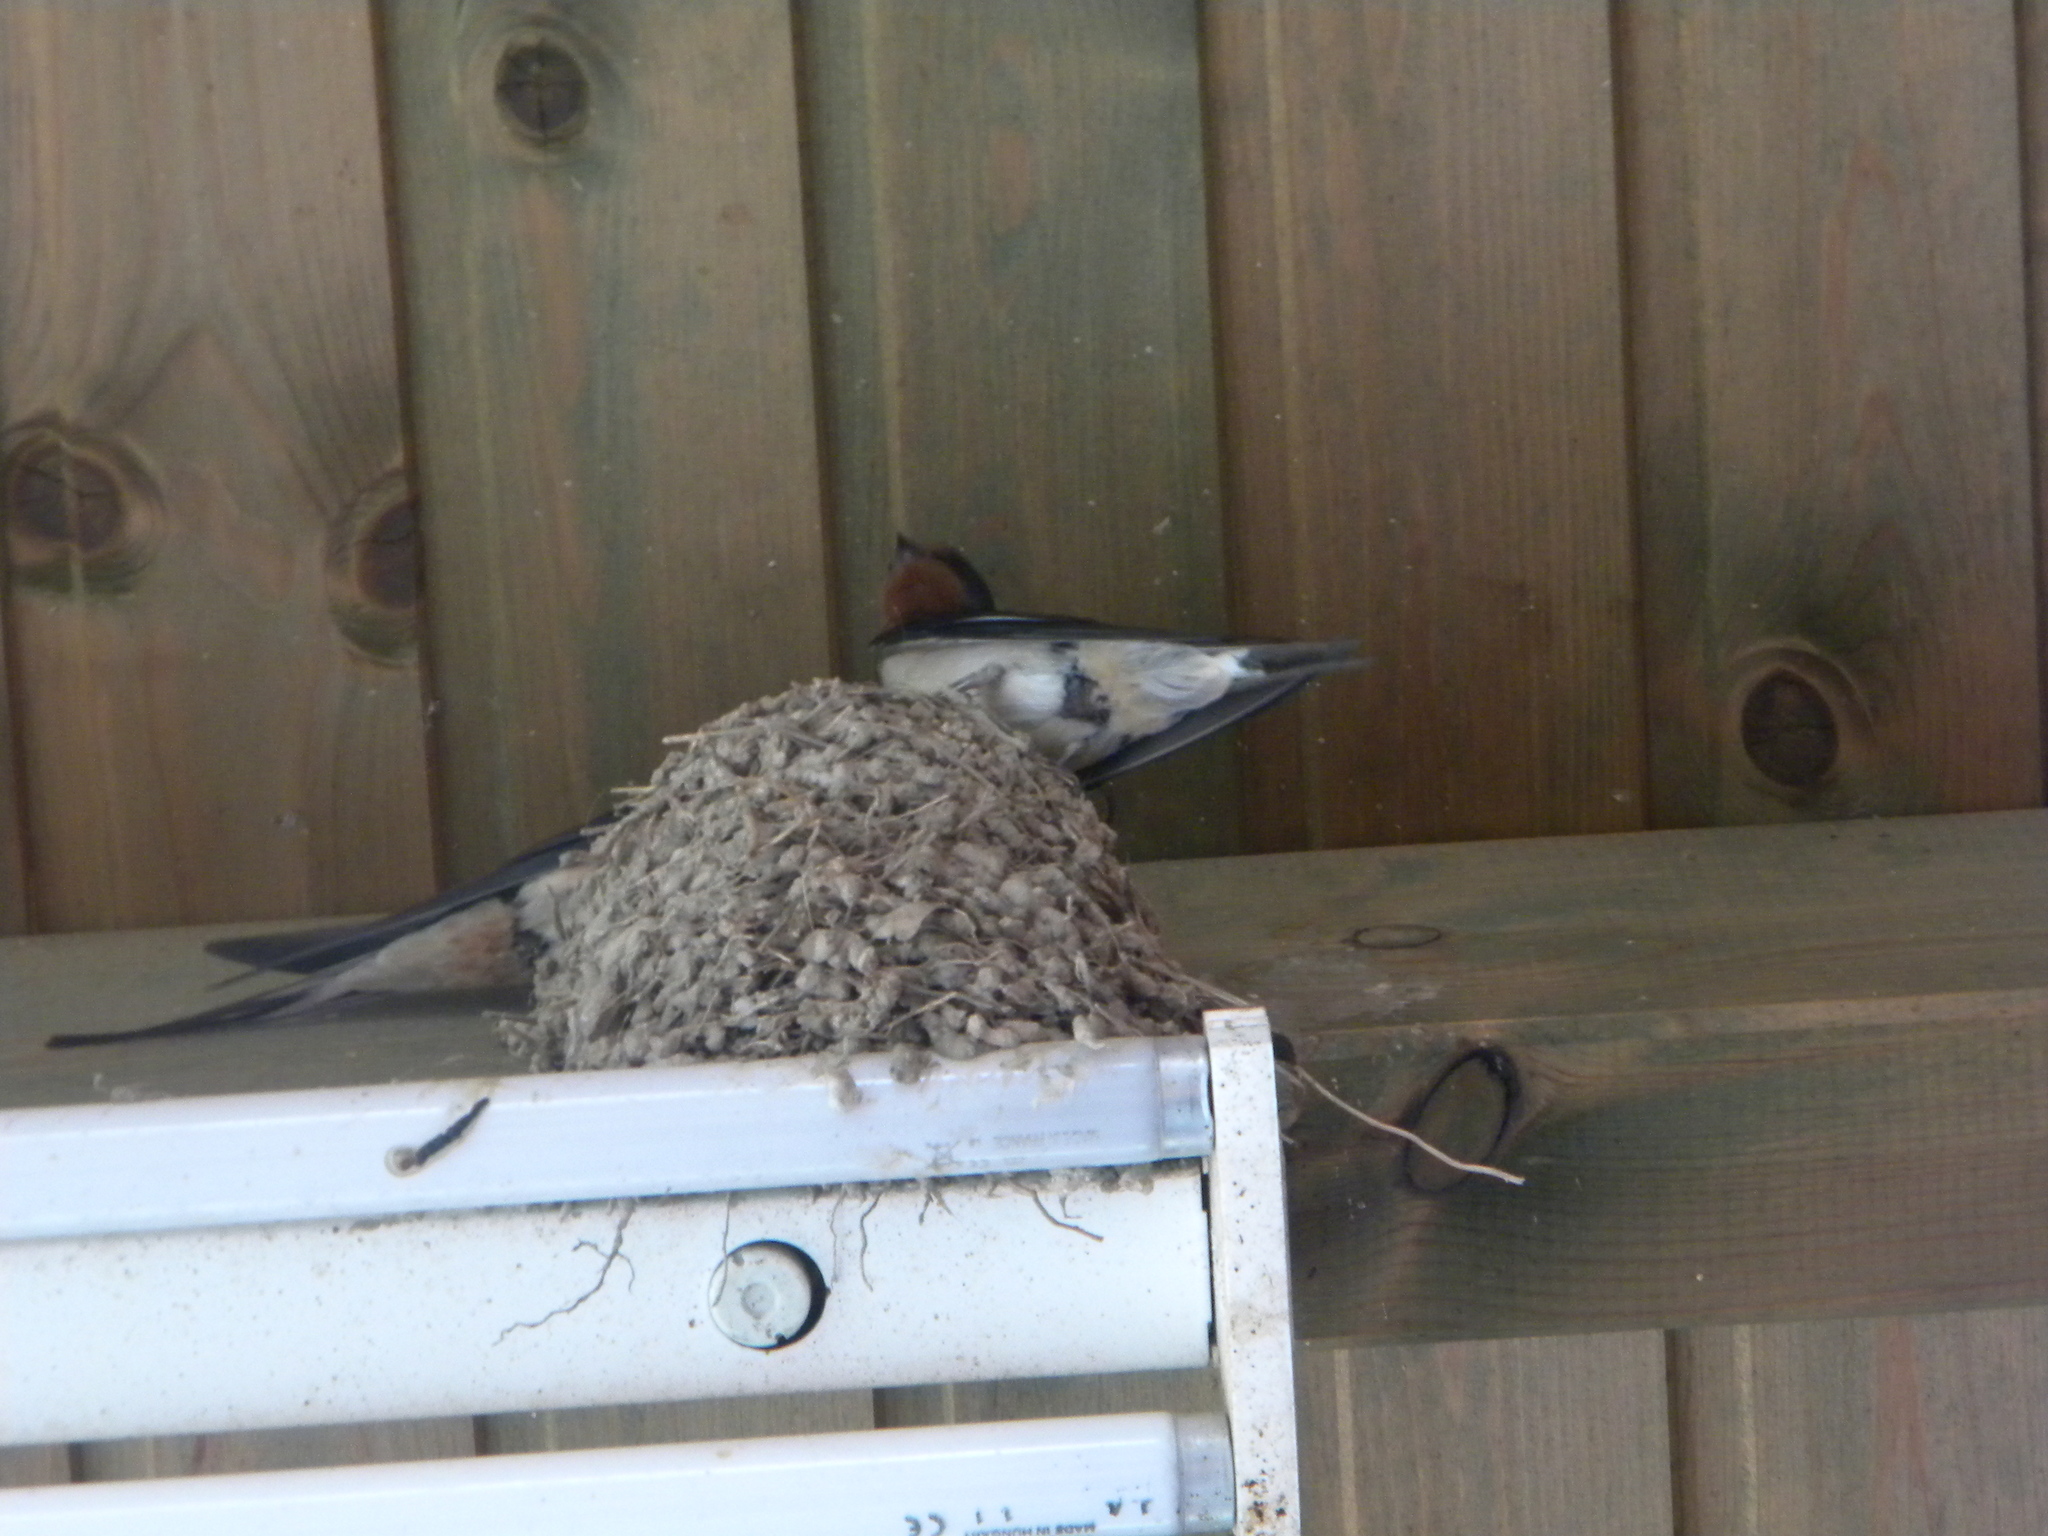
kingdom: Animalia
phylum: Chordata
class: Aves
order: Passeriformes
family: Hirundinidae
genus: Hirundo
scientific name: Hirundo rustica
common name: Barn swallow
